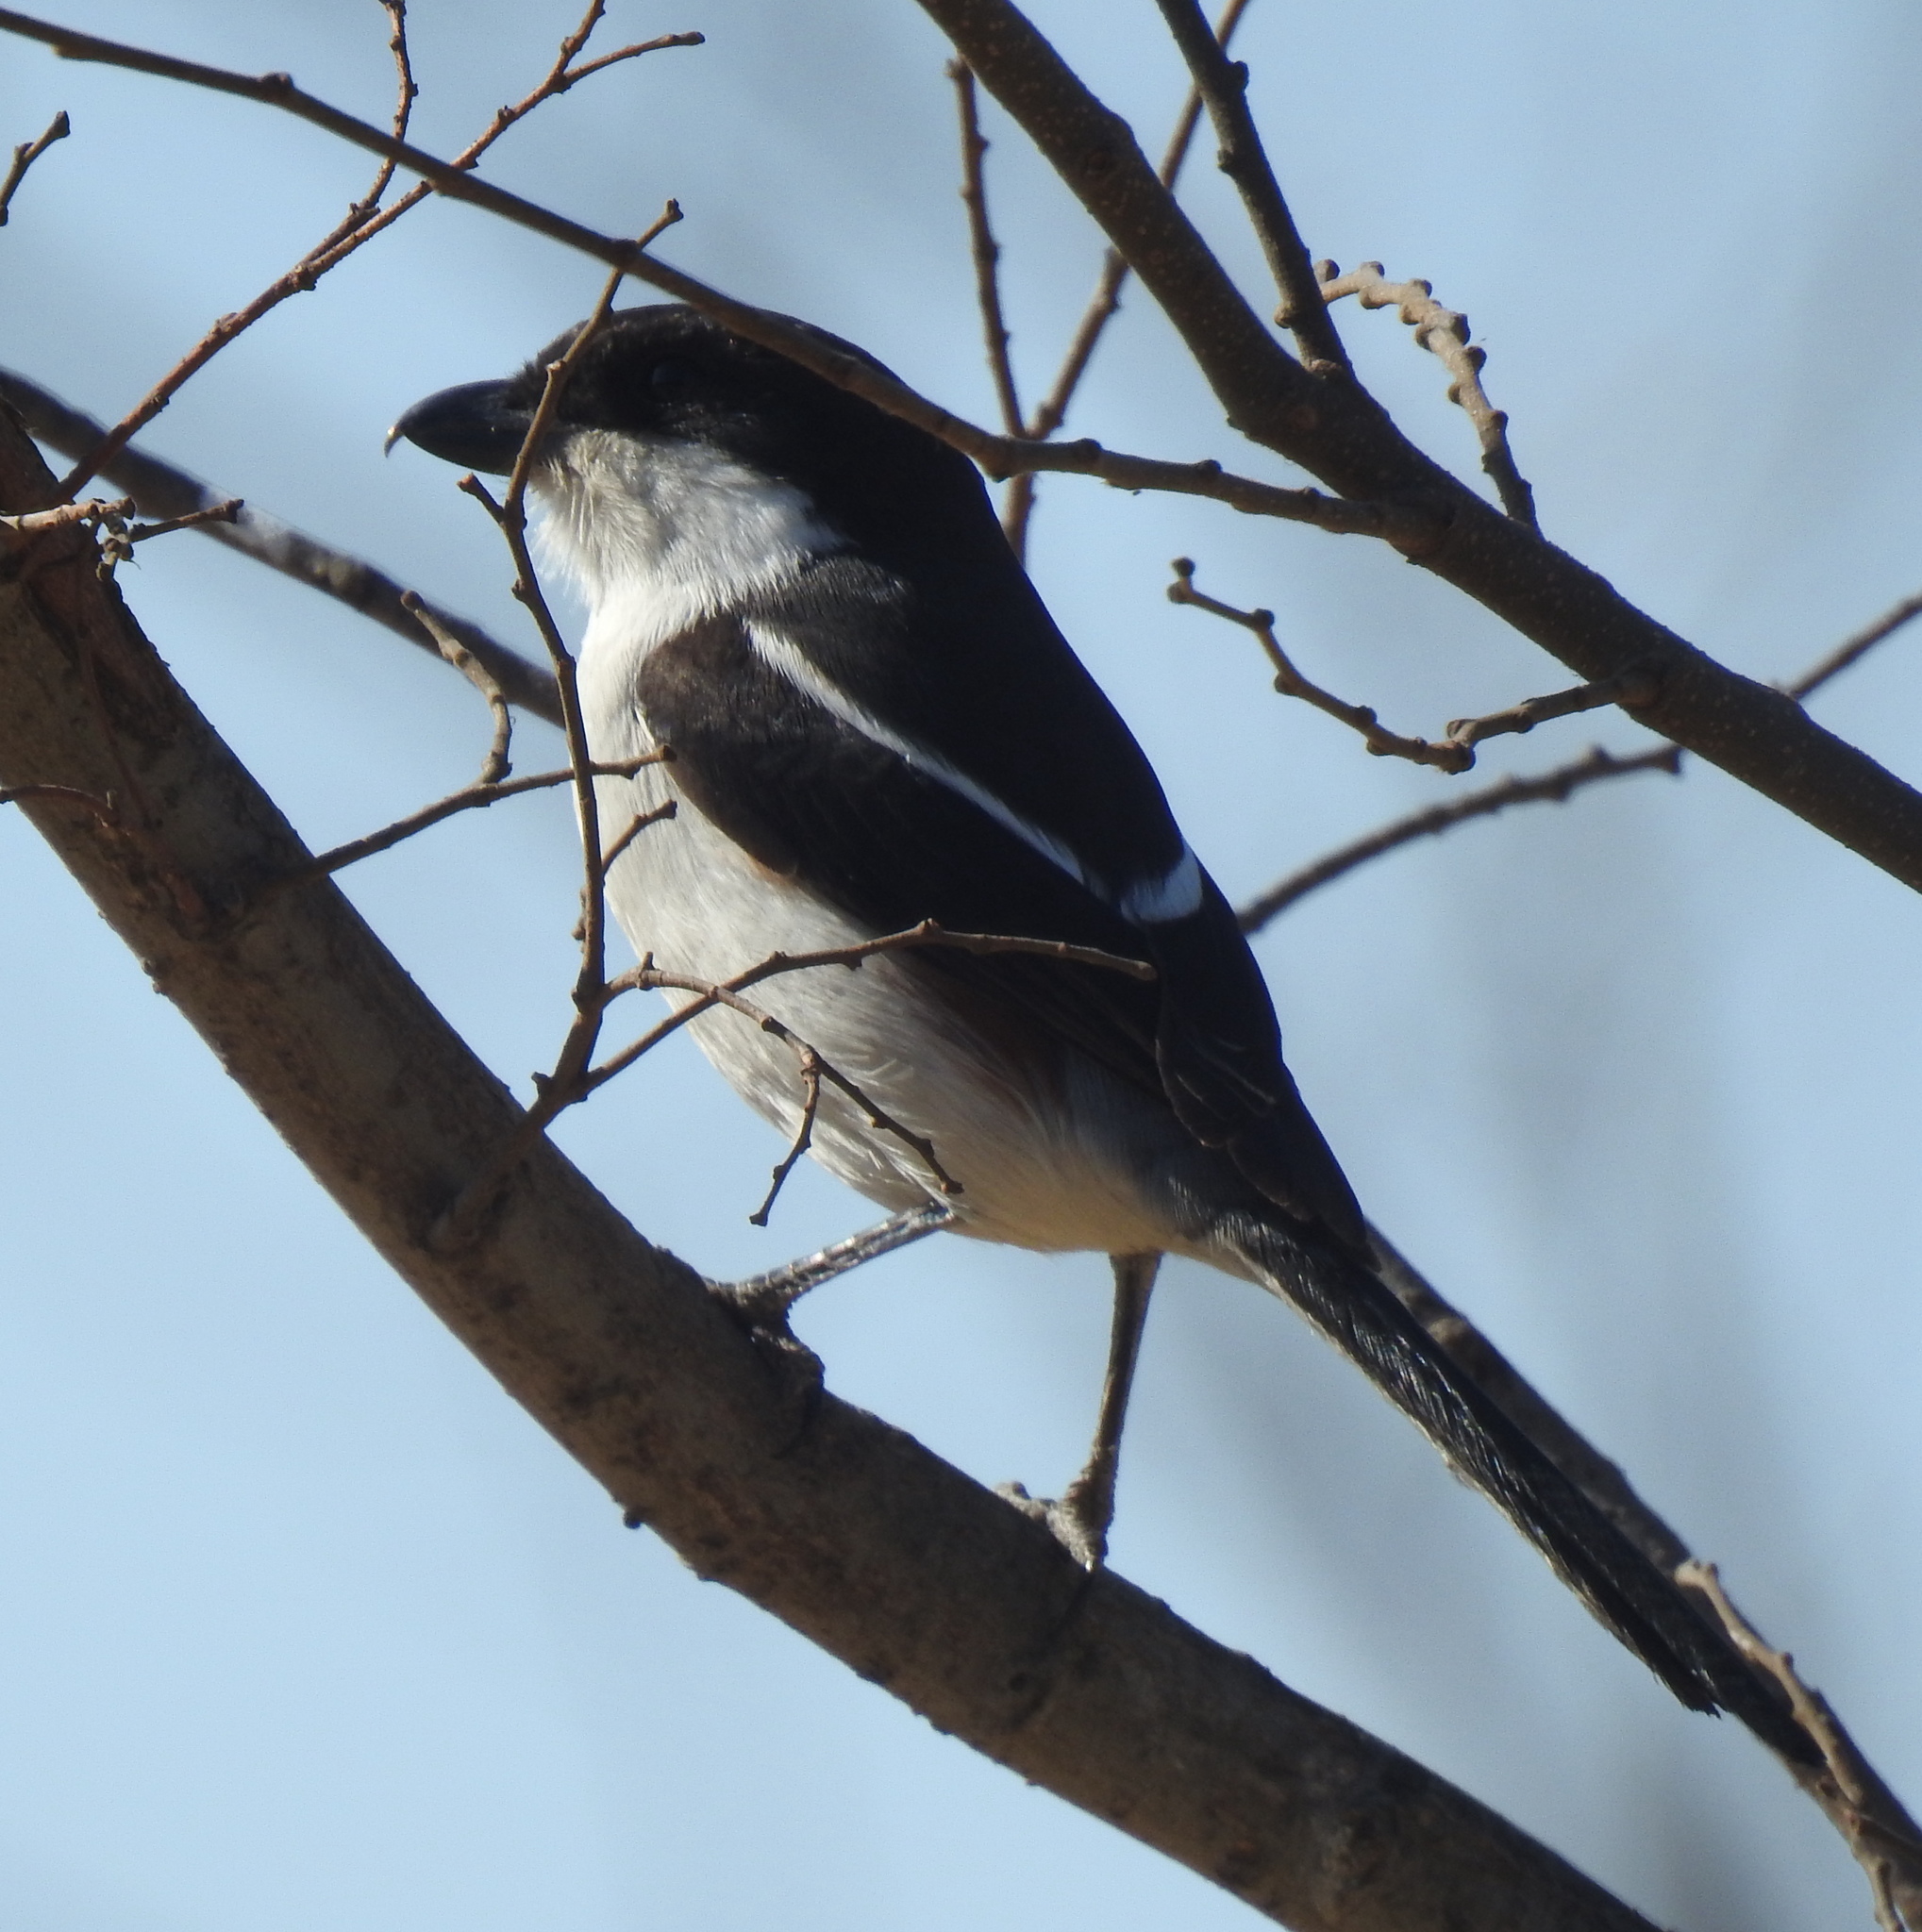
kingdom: Animalia
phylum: Chordata
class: Aves
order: Passeriformes
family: Laniidae
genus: Lanius
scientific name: Lanius collaris
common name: Southern fiscal
